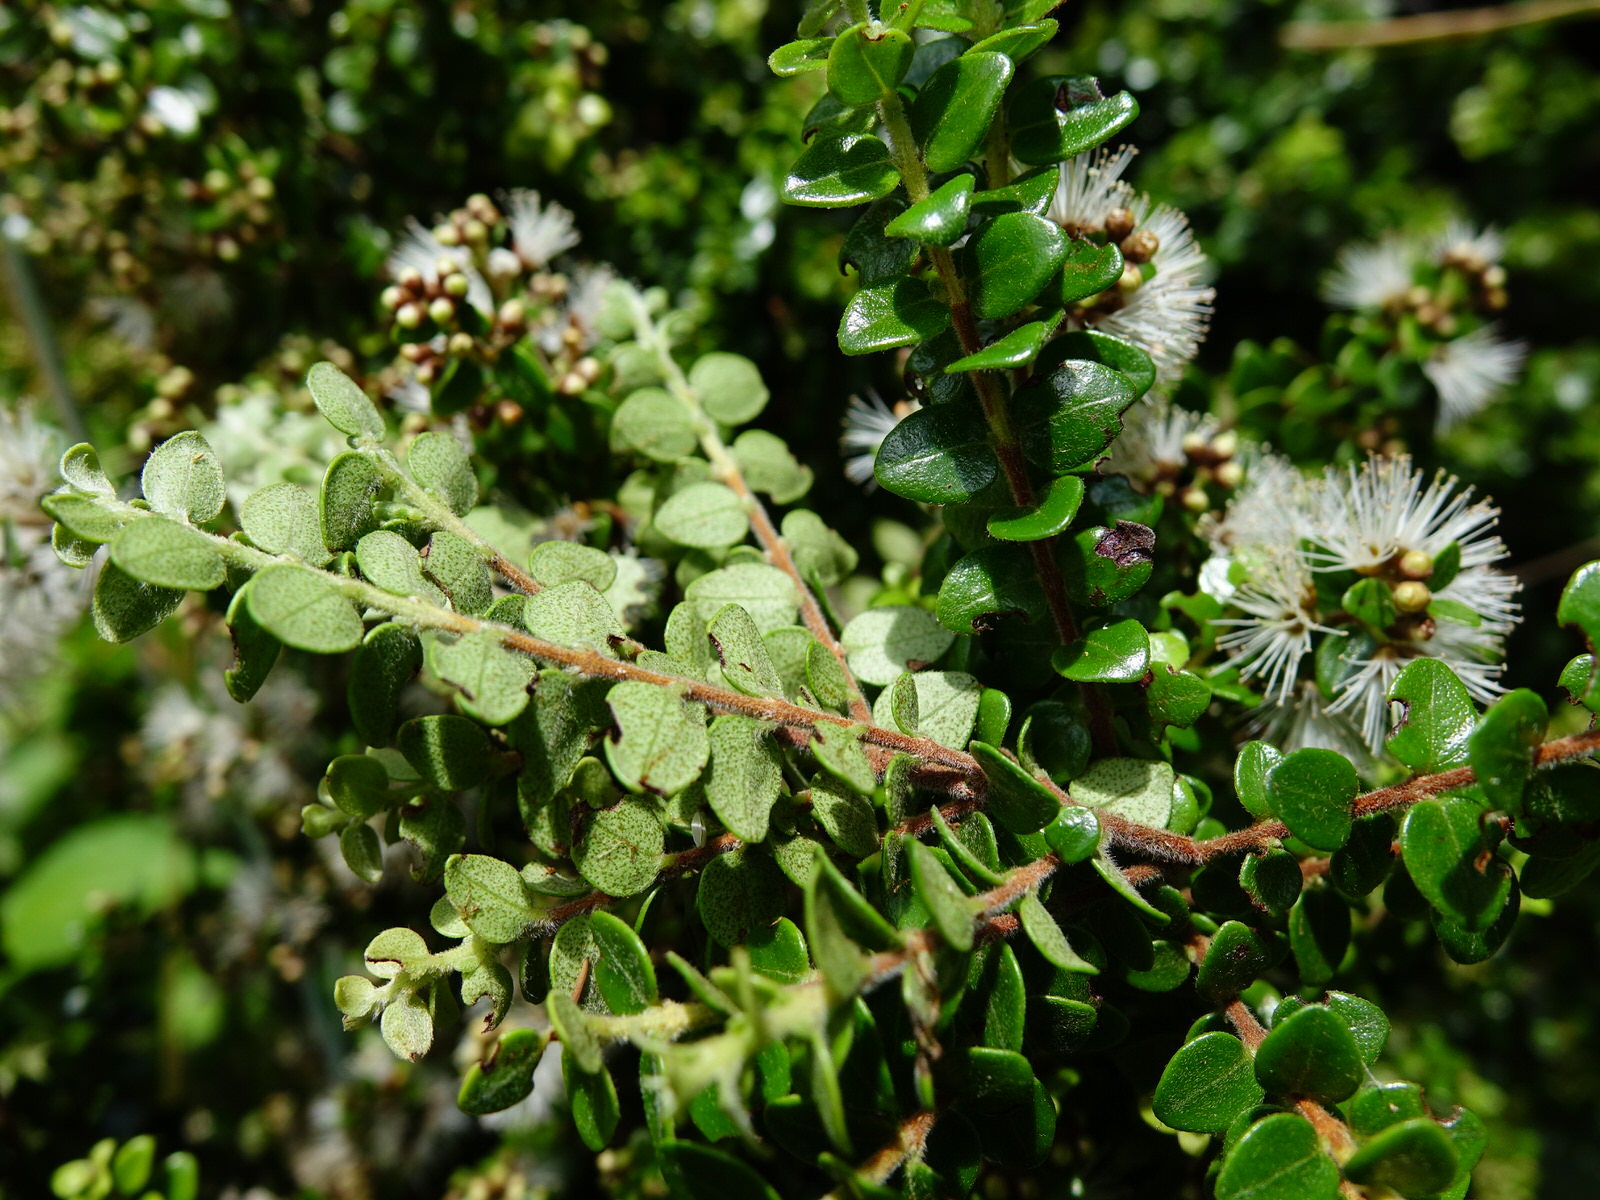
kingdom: Plantae
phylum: Tracheophyta
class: Magnoliopsida
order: Myrtales
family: Myrtaceae
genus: Metrosideros
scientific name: Metrosideros perforata
